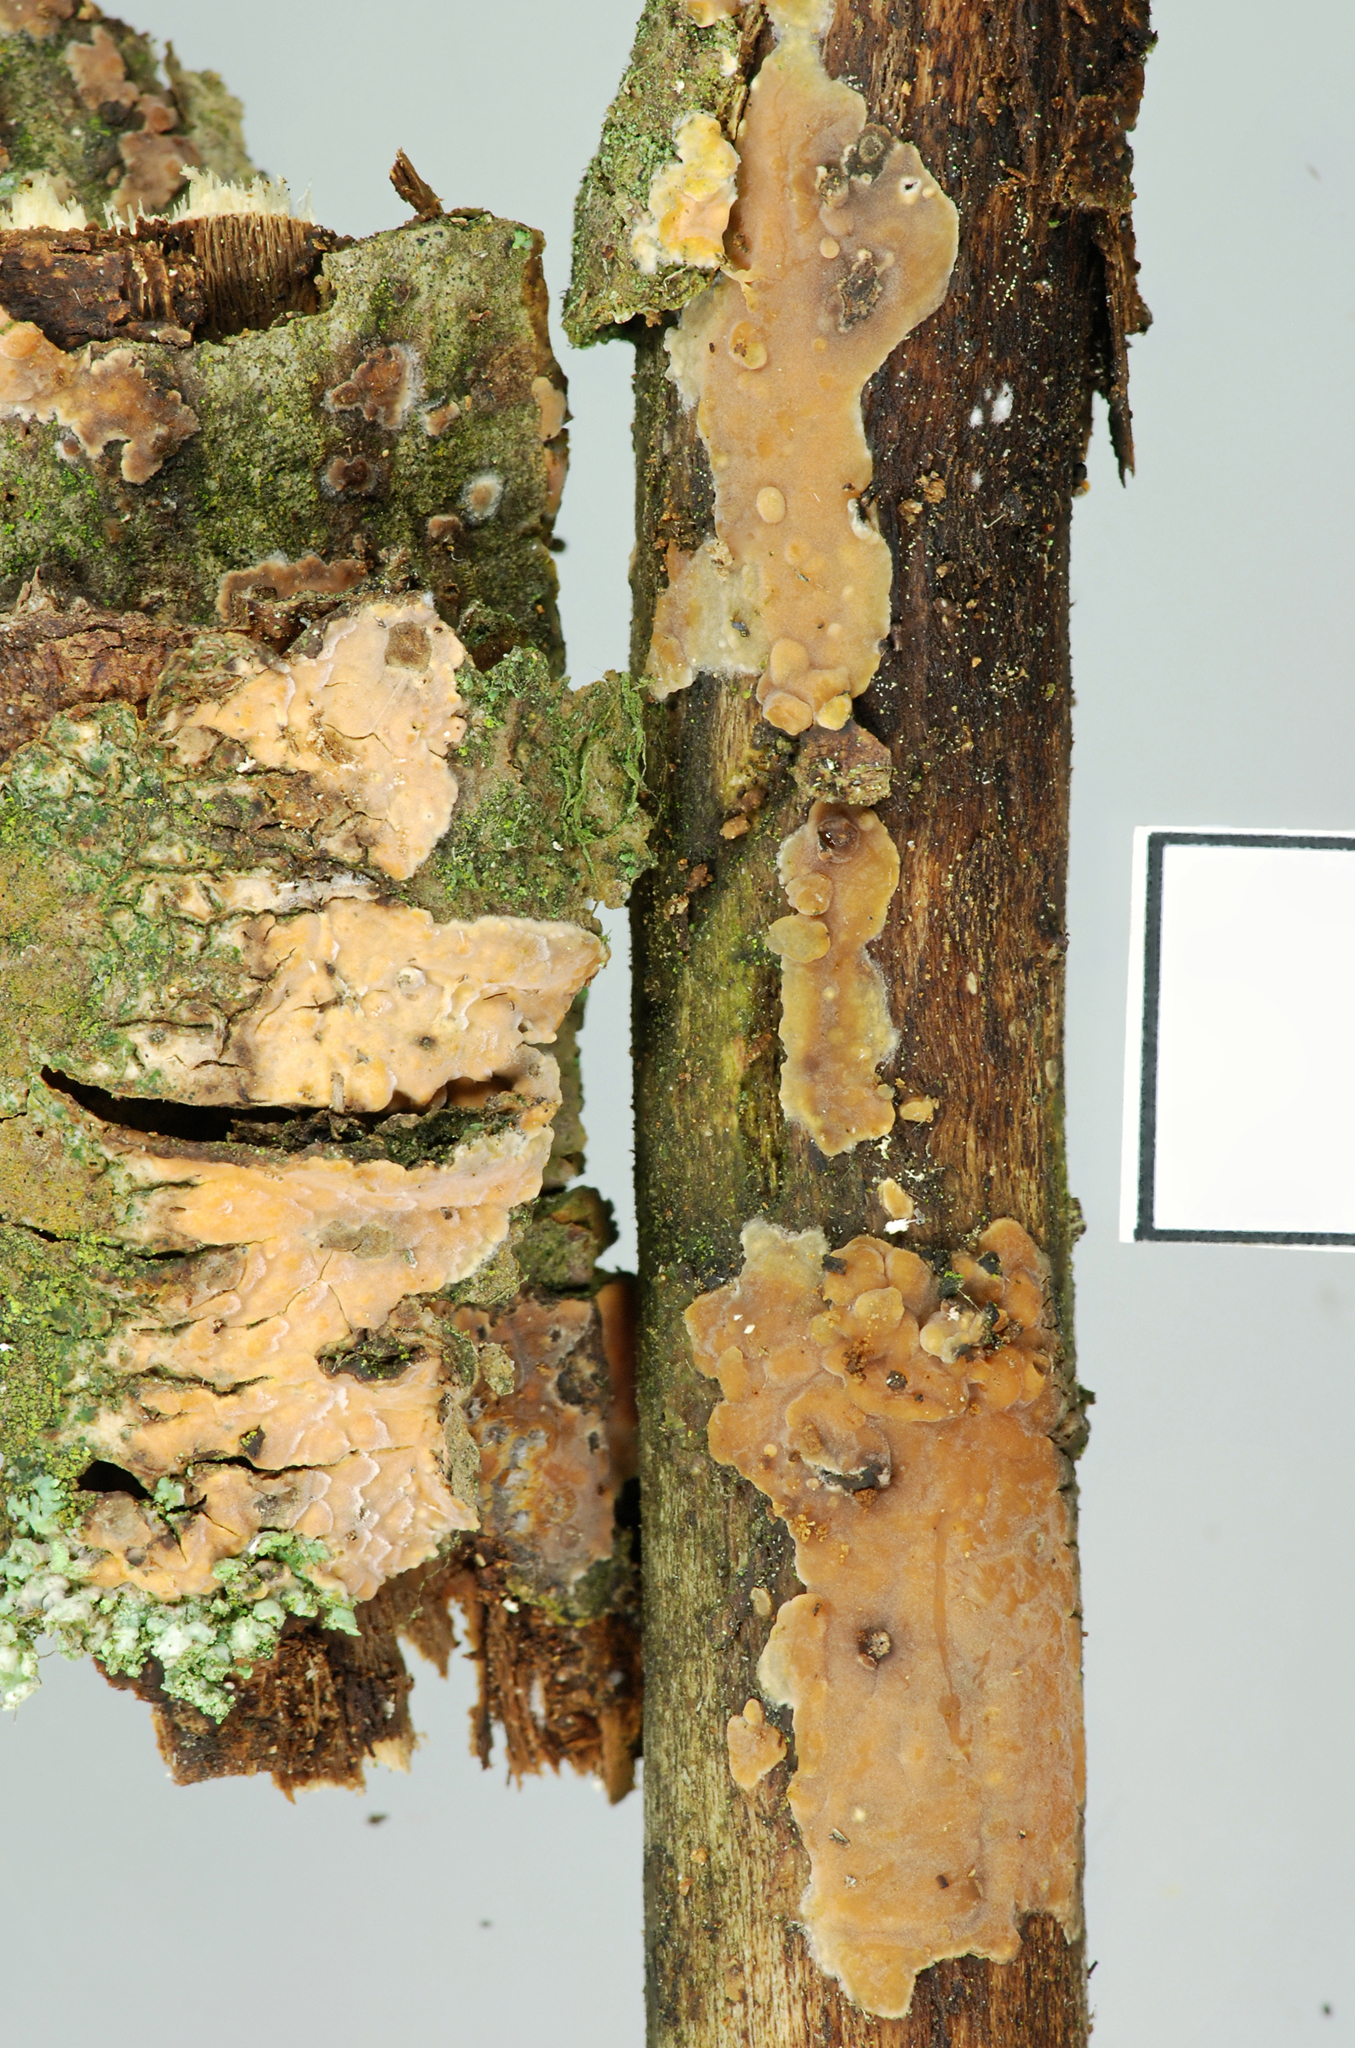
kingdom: Fungi
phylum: Basidiomycota
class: Agaricomycetes
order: Russulales
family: Peniophoraceae
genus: Peniophora
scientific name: Peniophora incarnata
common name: Rosy crust
